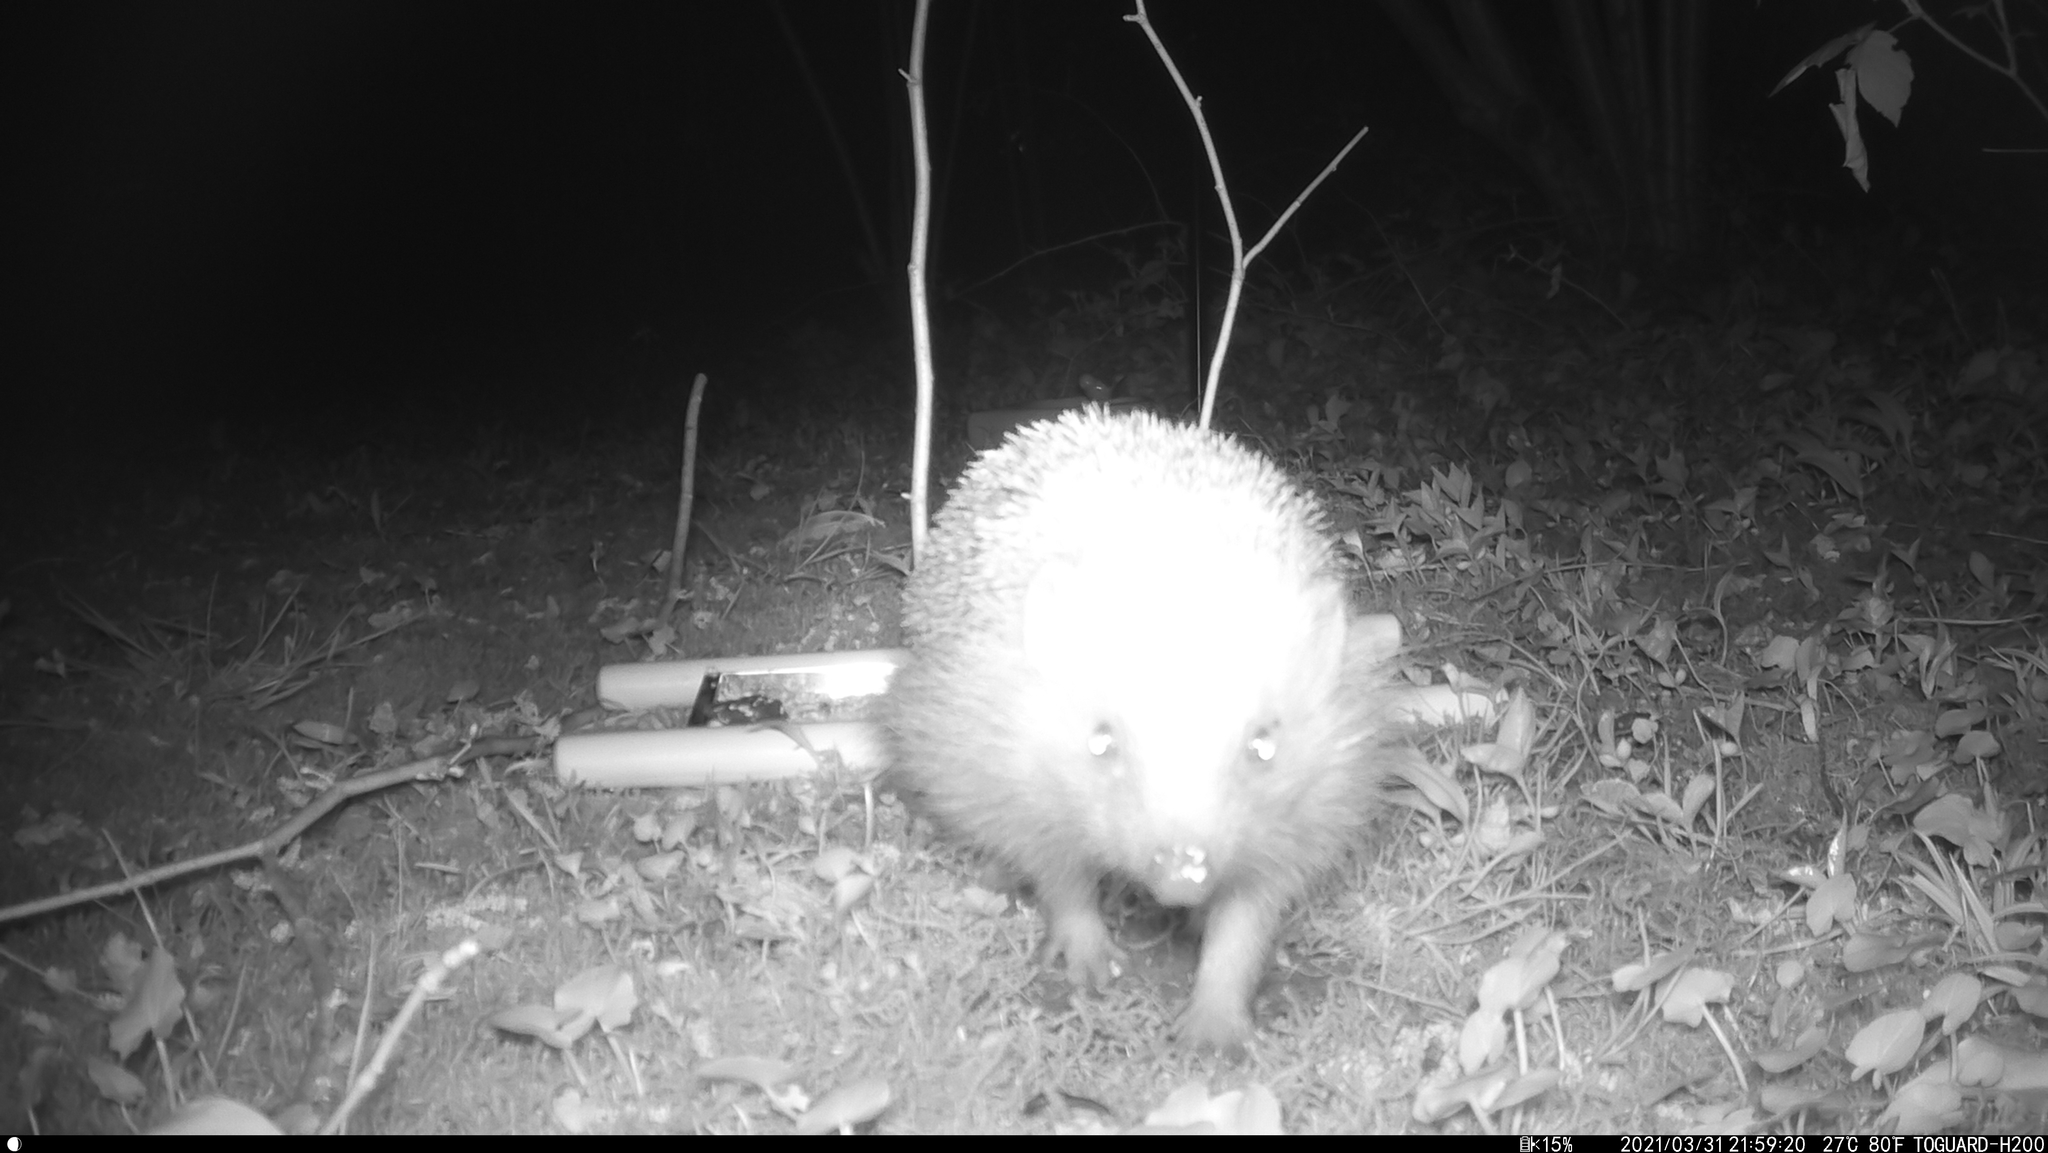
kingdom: Animalia
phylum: Chordata
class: Mammalia
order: Erinaceomorpha
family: Erinaceidae
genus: Erinaceus
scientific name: Erinaceus europaeus
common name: West european hedgehog
